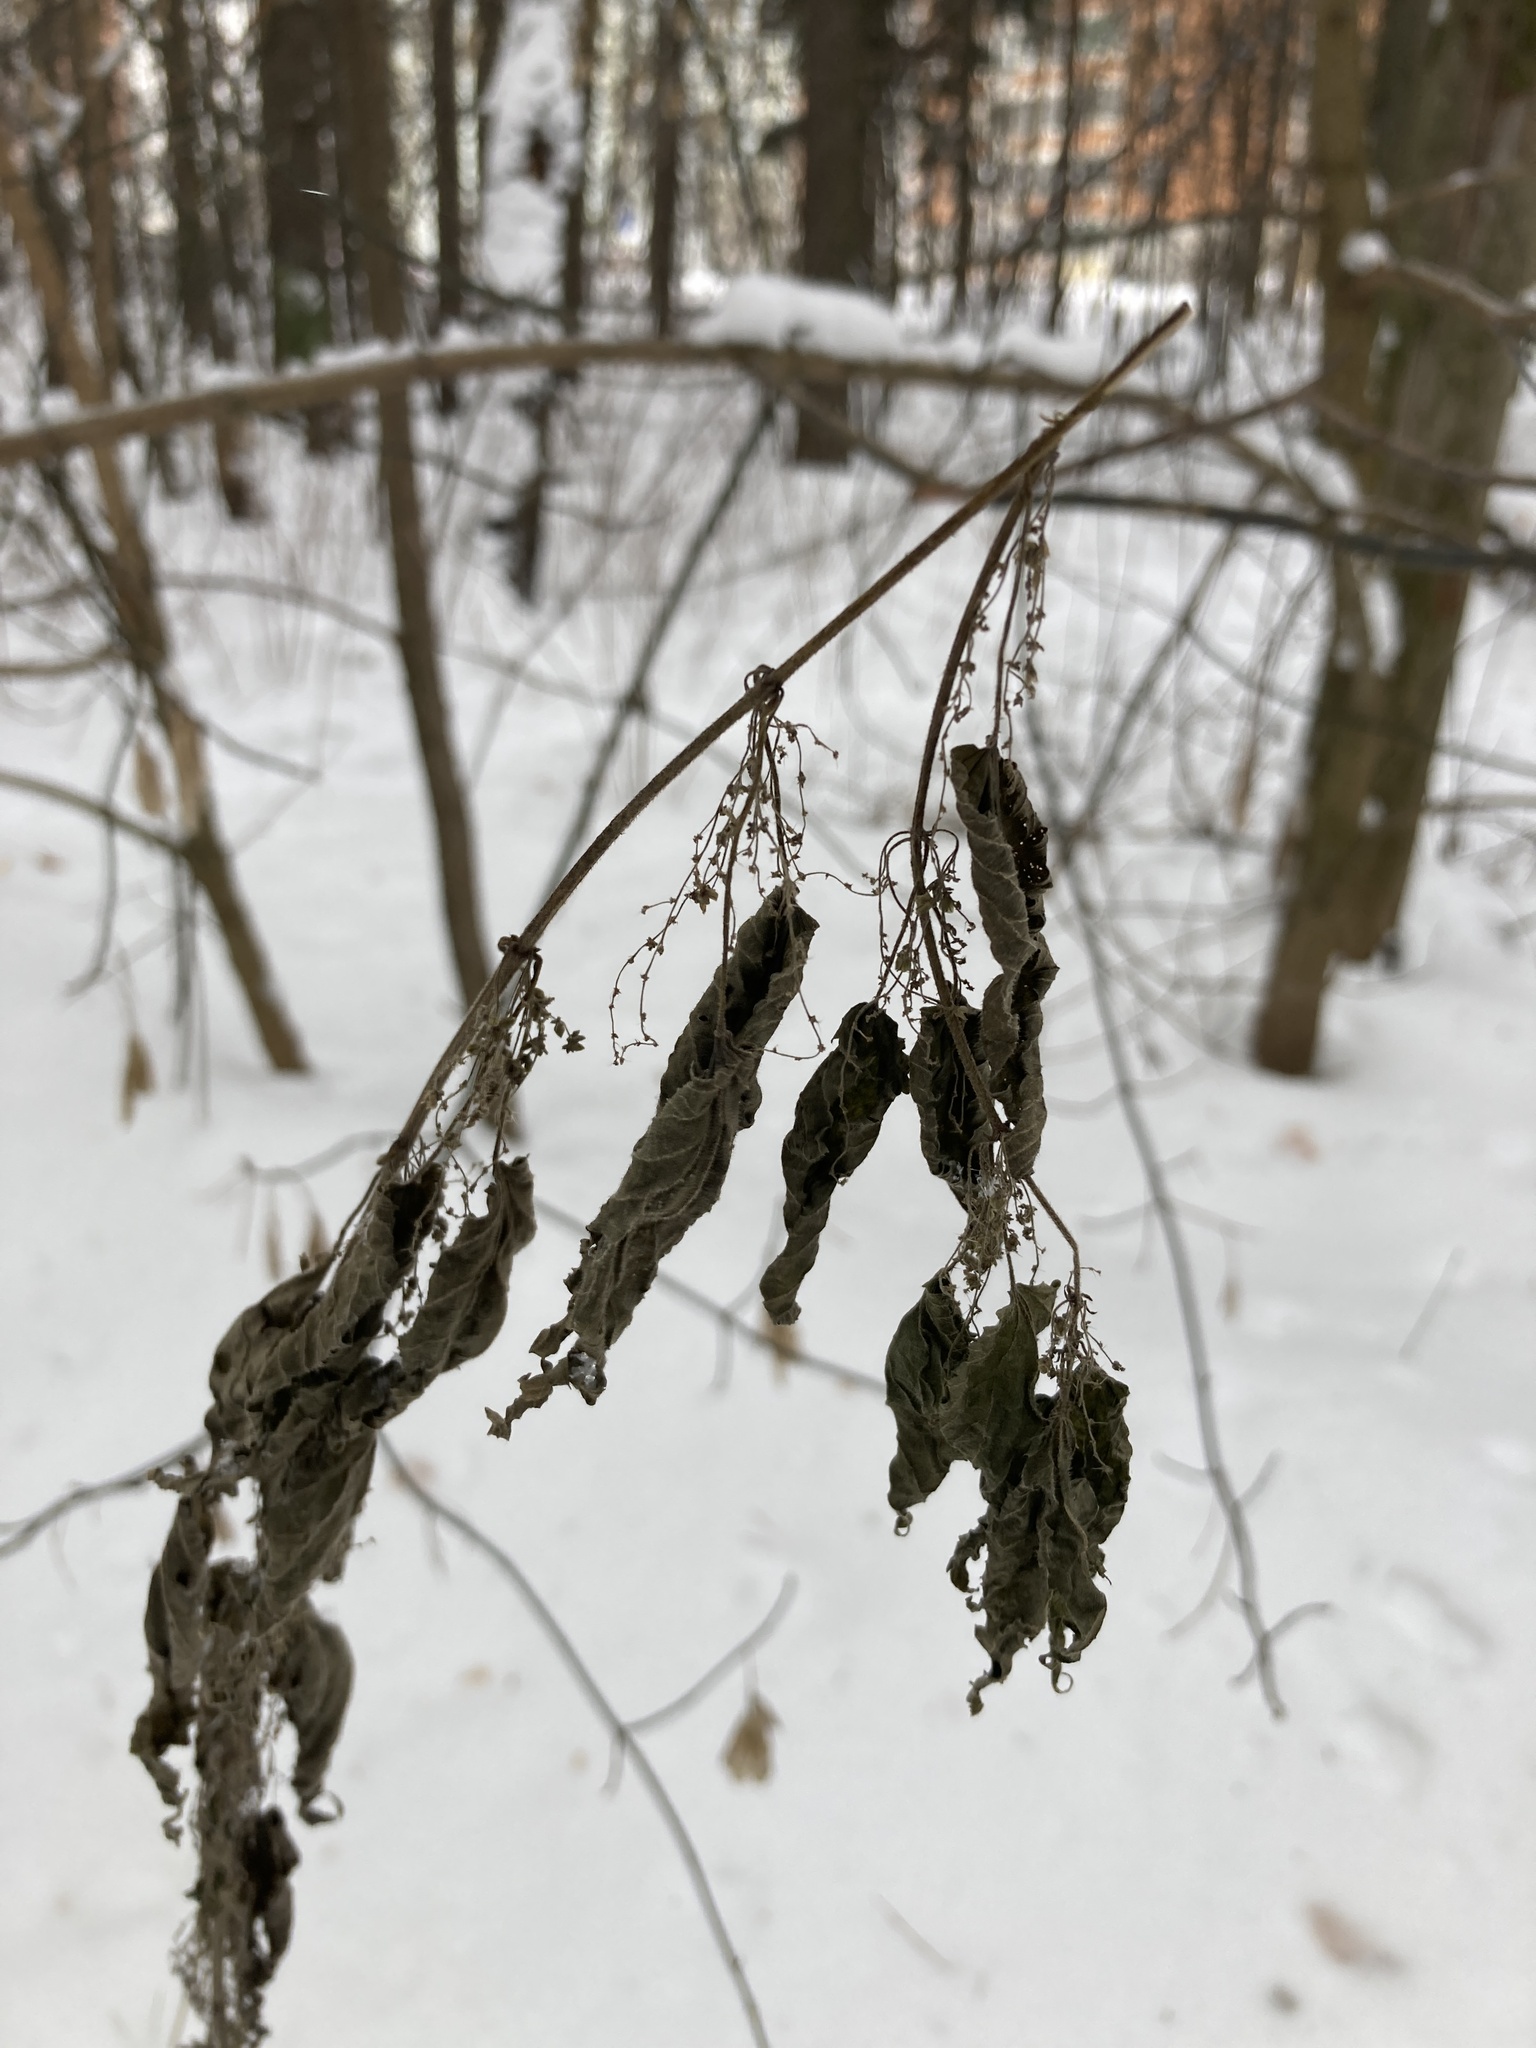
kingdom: Plantae
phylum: Tracheophyta
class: Magnoliopsida
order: Rosales
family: Urticaceae
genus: Urtica
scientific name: Urtica dioica
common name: Common nettle
